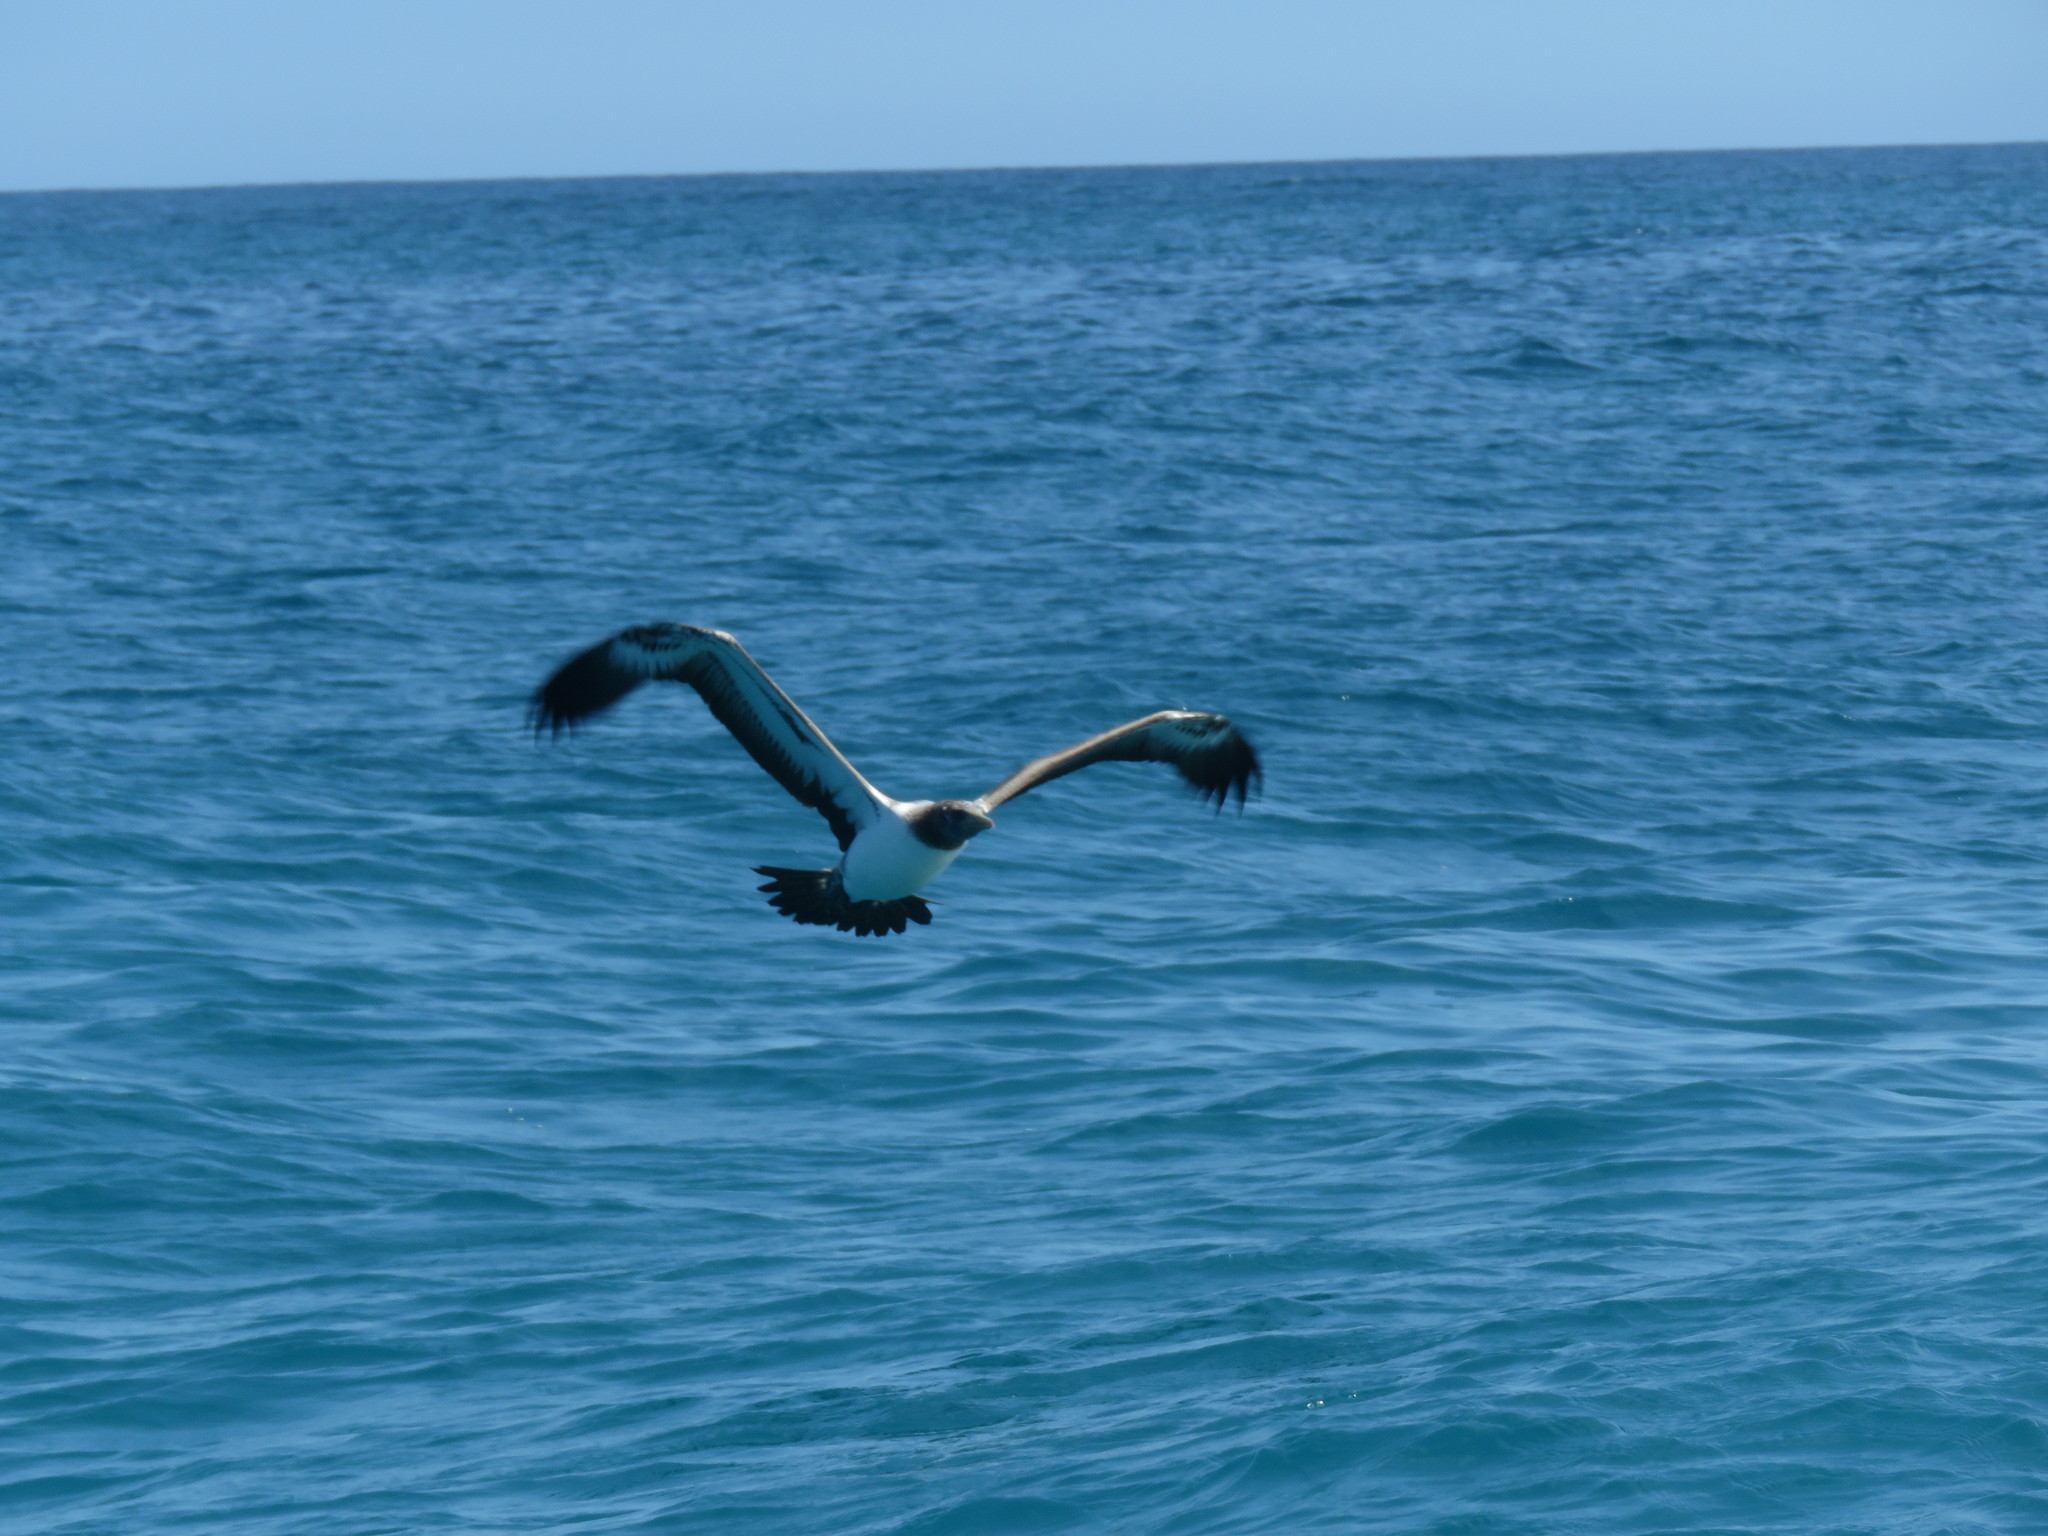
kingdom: Animalia
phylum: Chordata
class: Aves
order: Suliformes
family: Sulidae
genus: Sula
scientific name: Sula granti
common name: Nazca booby
